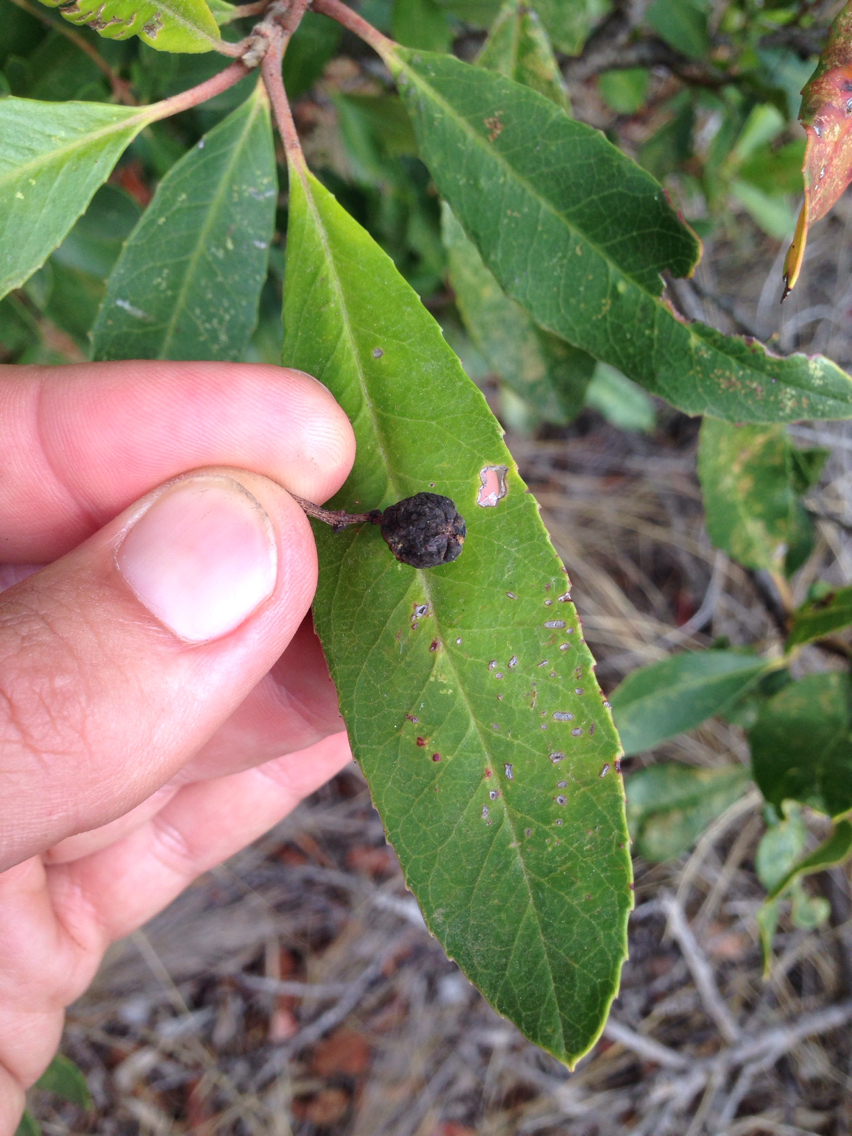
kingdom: Plantae
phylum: Tracheophyta
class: Magnoliopsida
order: Rosales
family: Rosaceae
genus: Heteromeles
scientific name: Heteromeles arbutifolia
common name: California-holly
